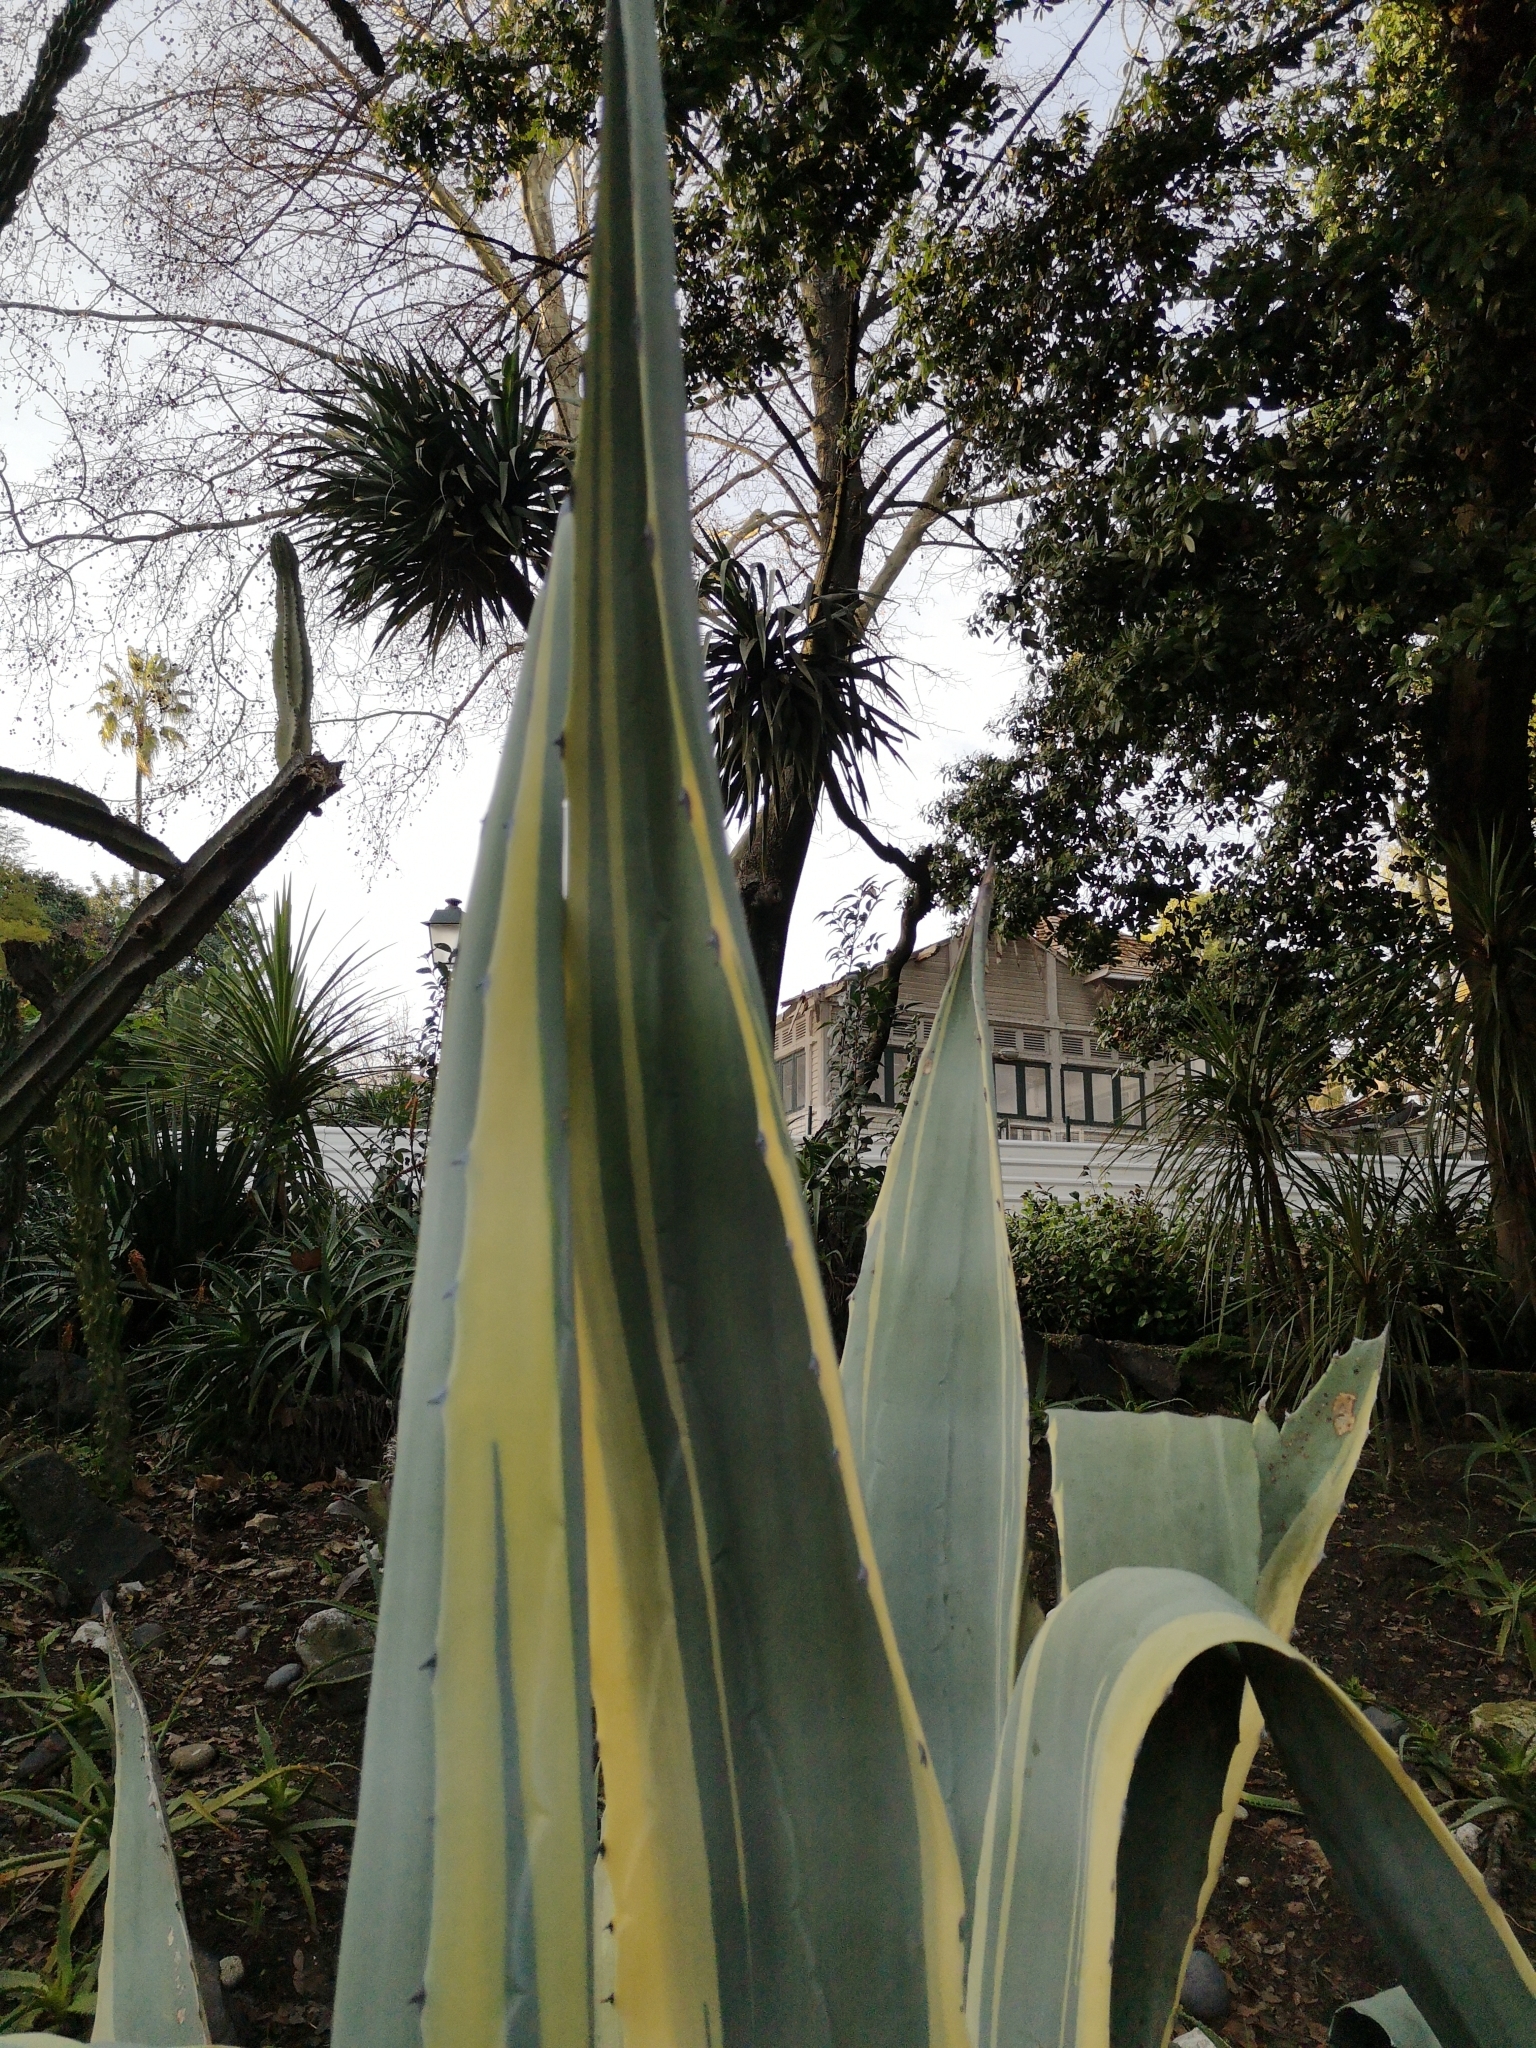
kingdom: Plantae
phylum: Tracheophyta
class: Liliopsida
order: Asparagales
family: Asparagaceae
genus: Agave
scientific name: Agave americana
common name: Centuryplant
